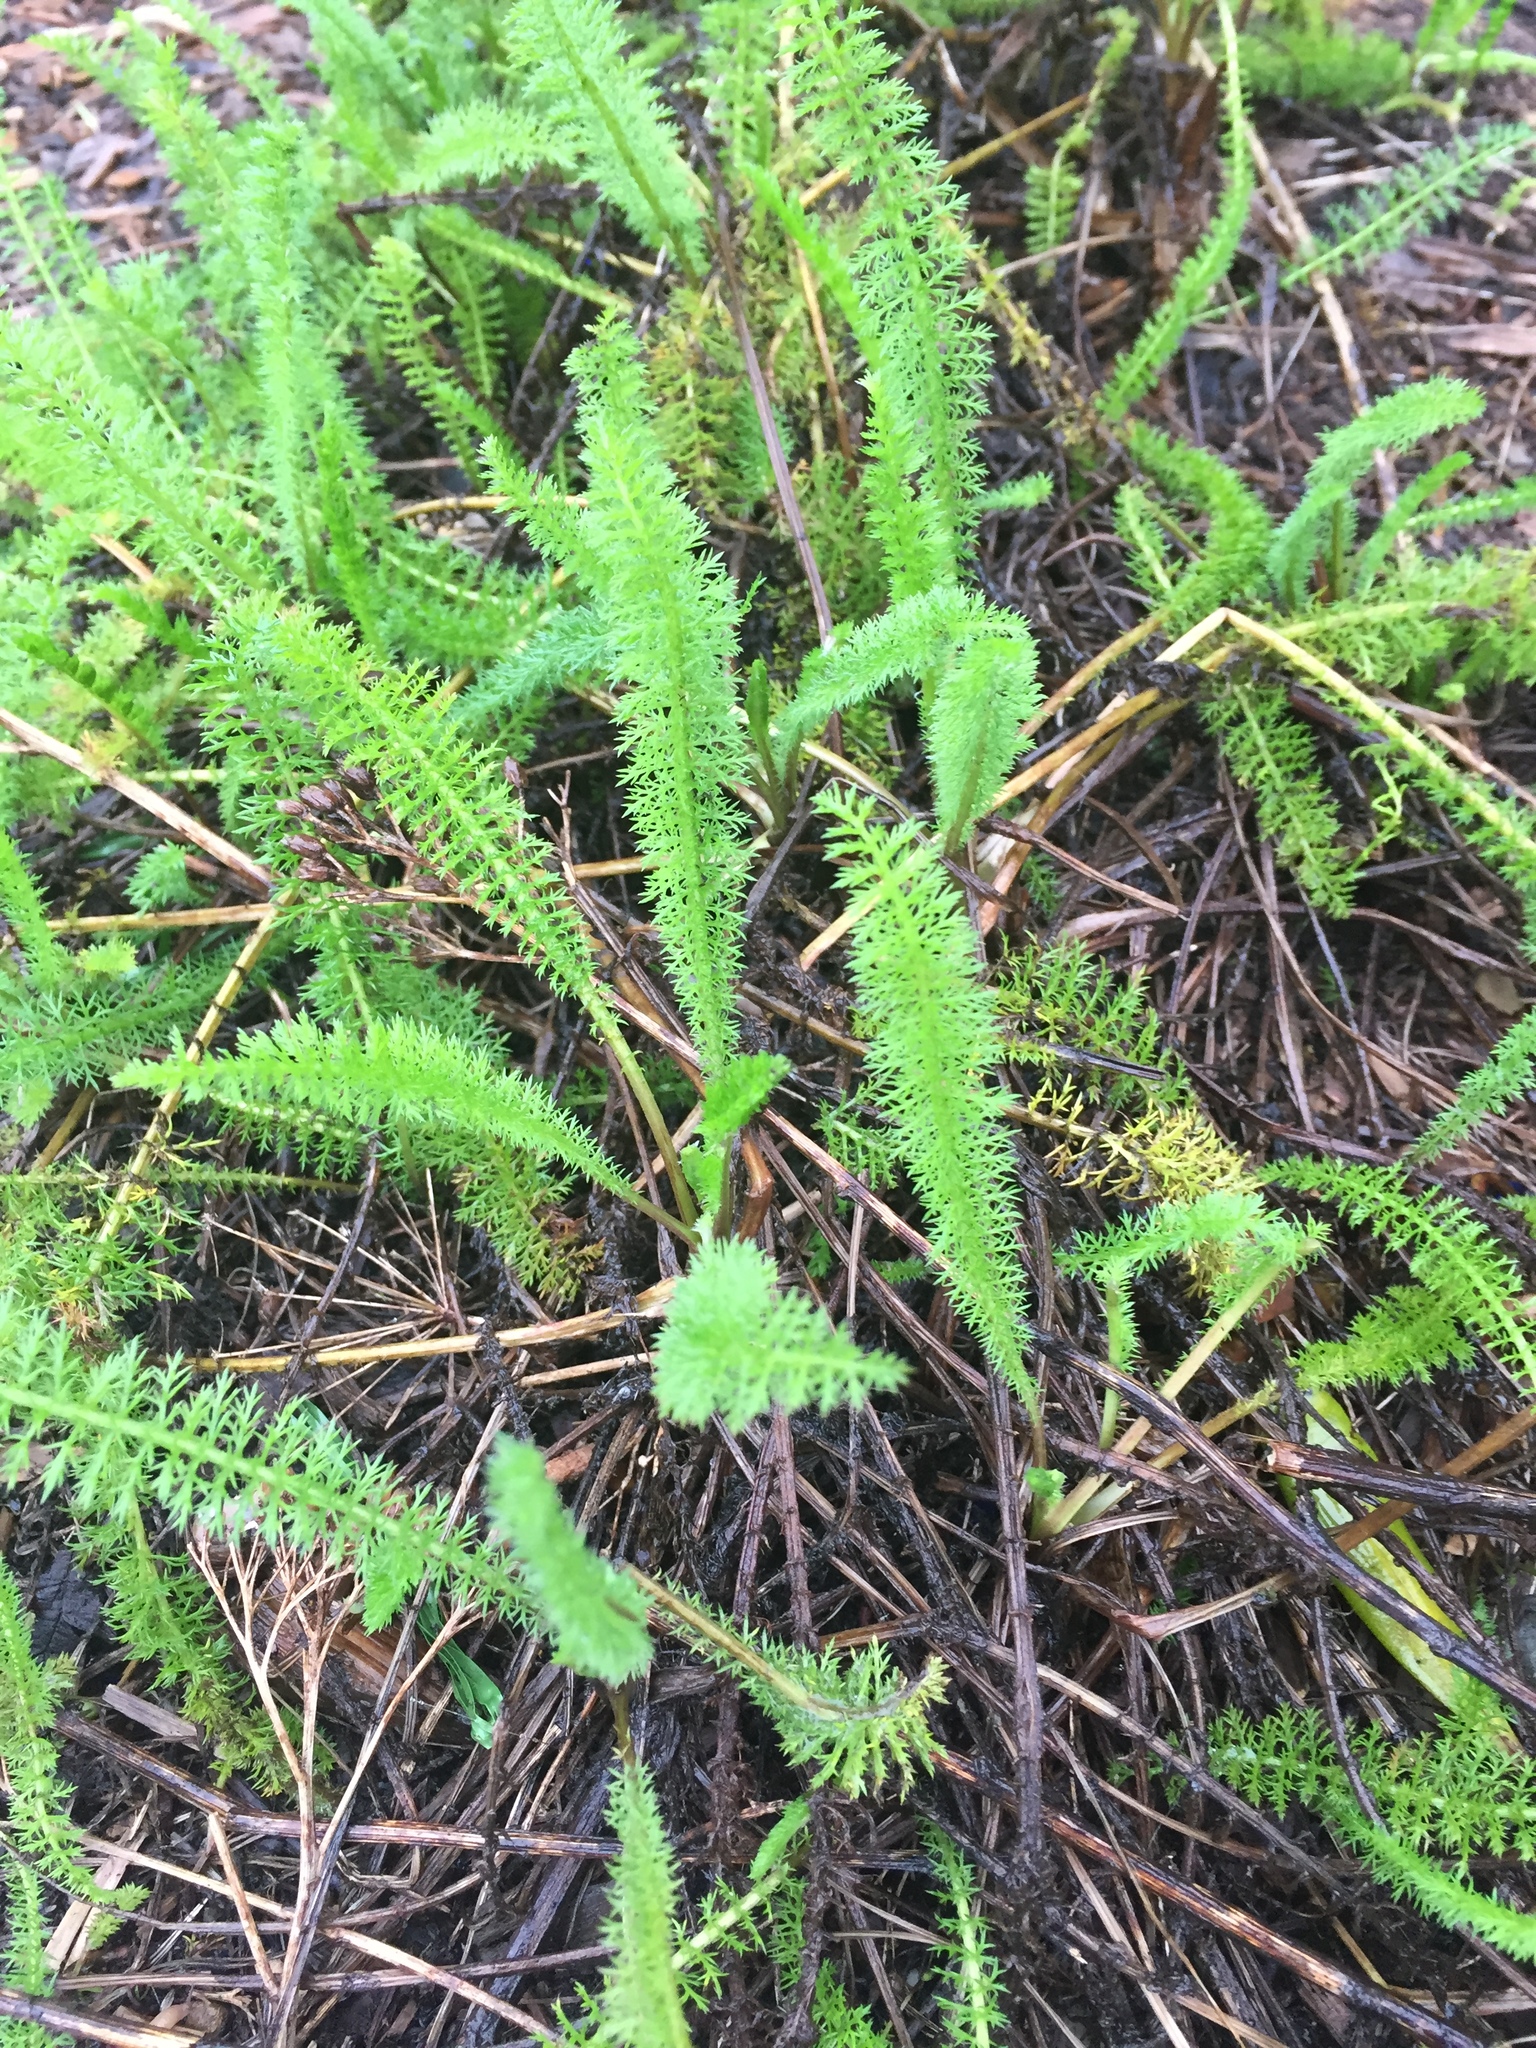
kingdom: Plantae
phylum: Tracheophyta
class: Magnoliopsida
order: Asterales
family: Asteraceae
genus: Achillea
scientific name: Achillea millefolium
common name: Yarrow
